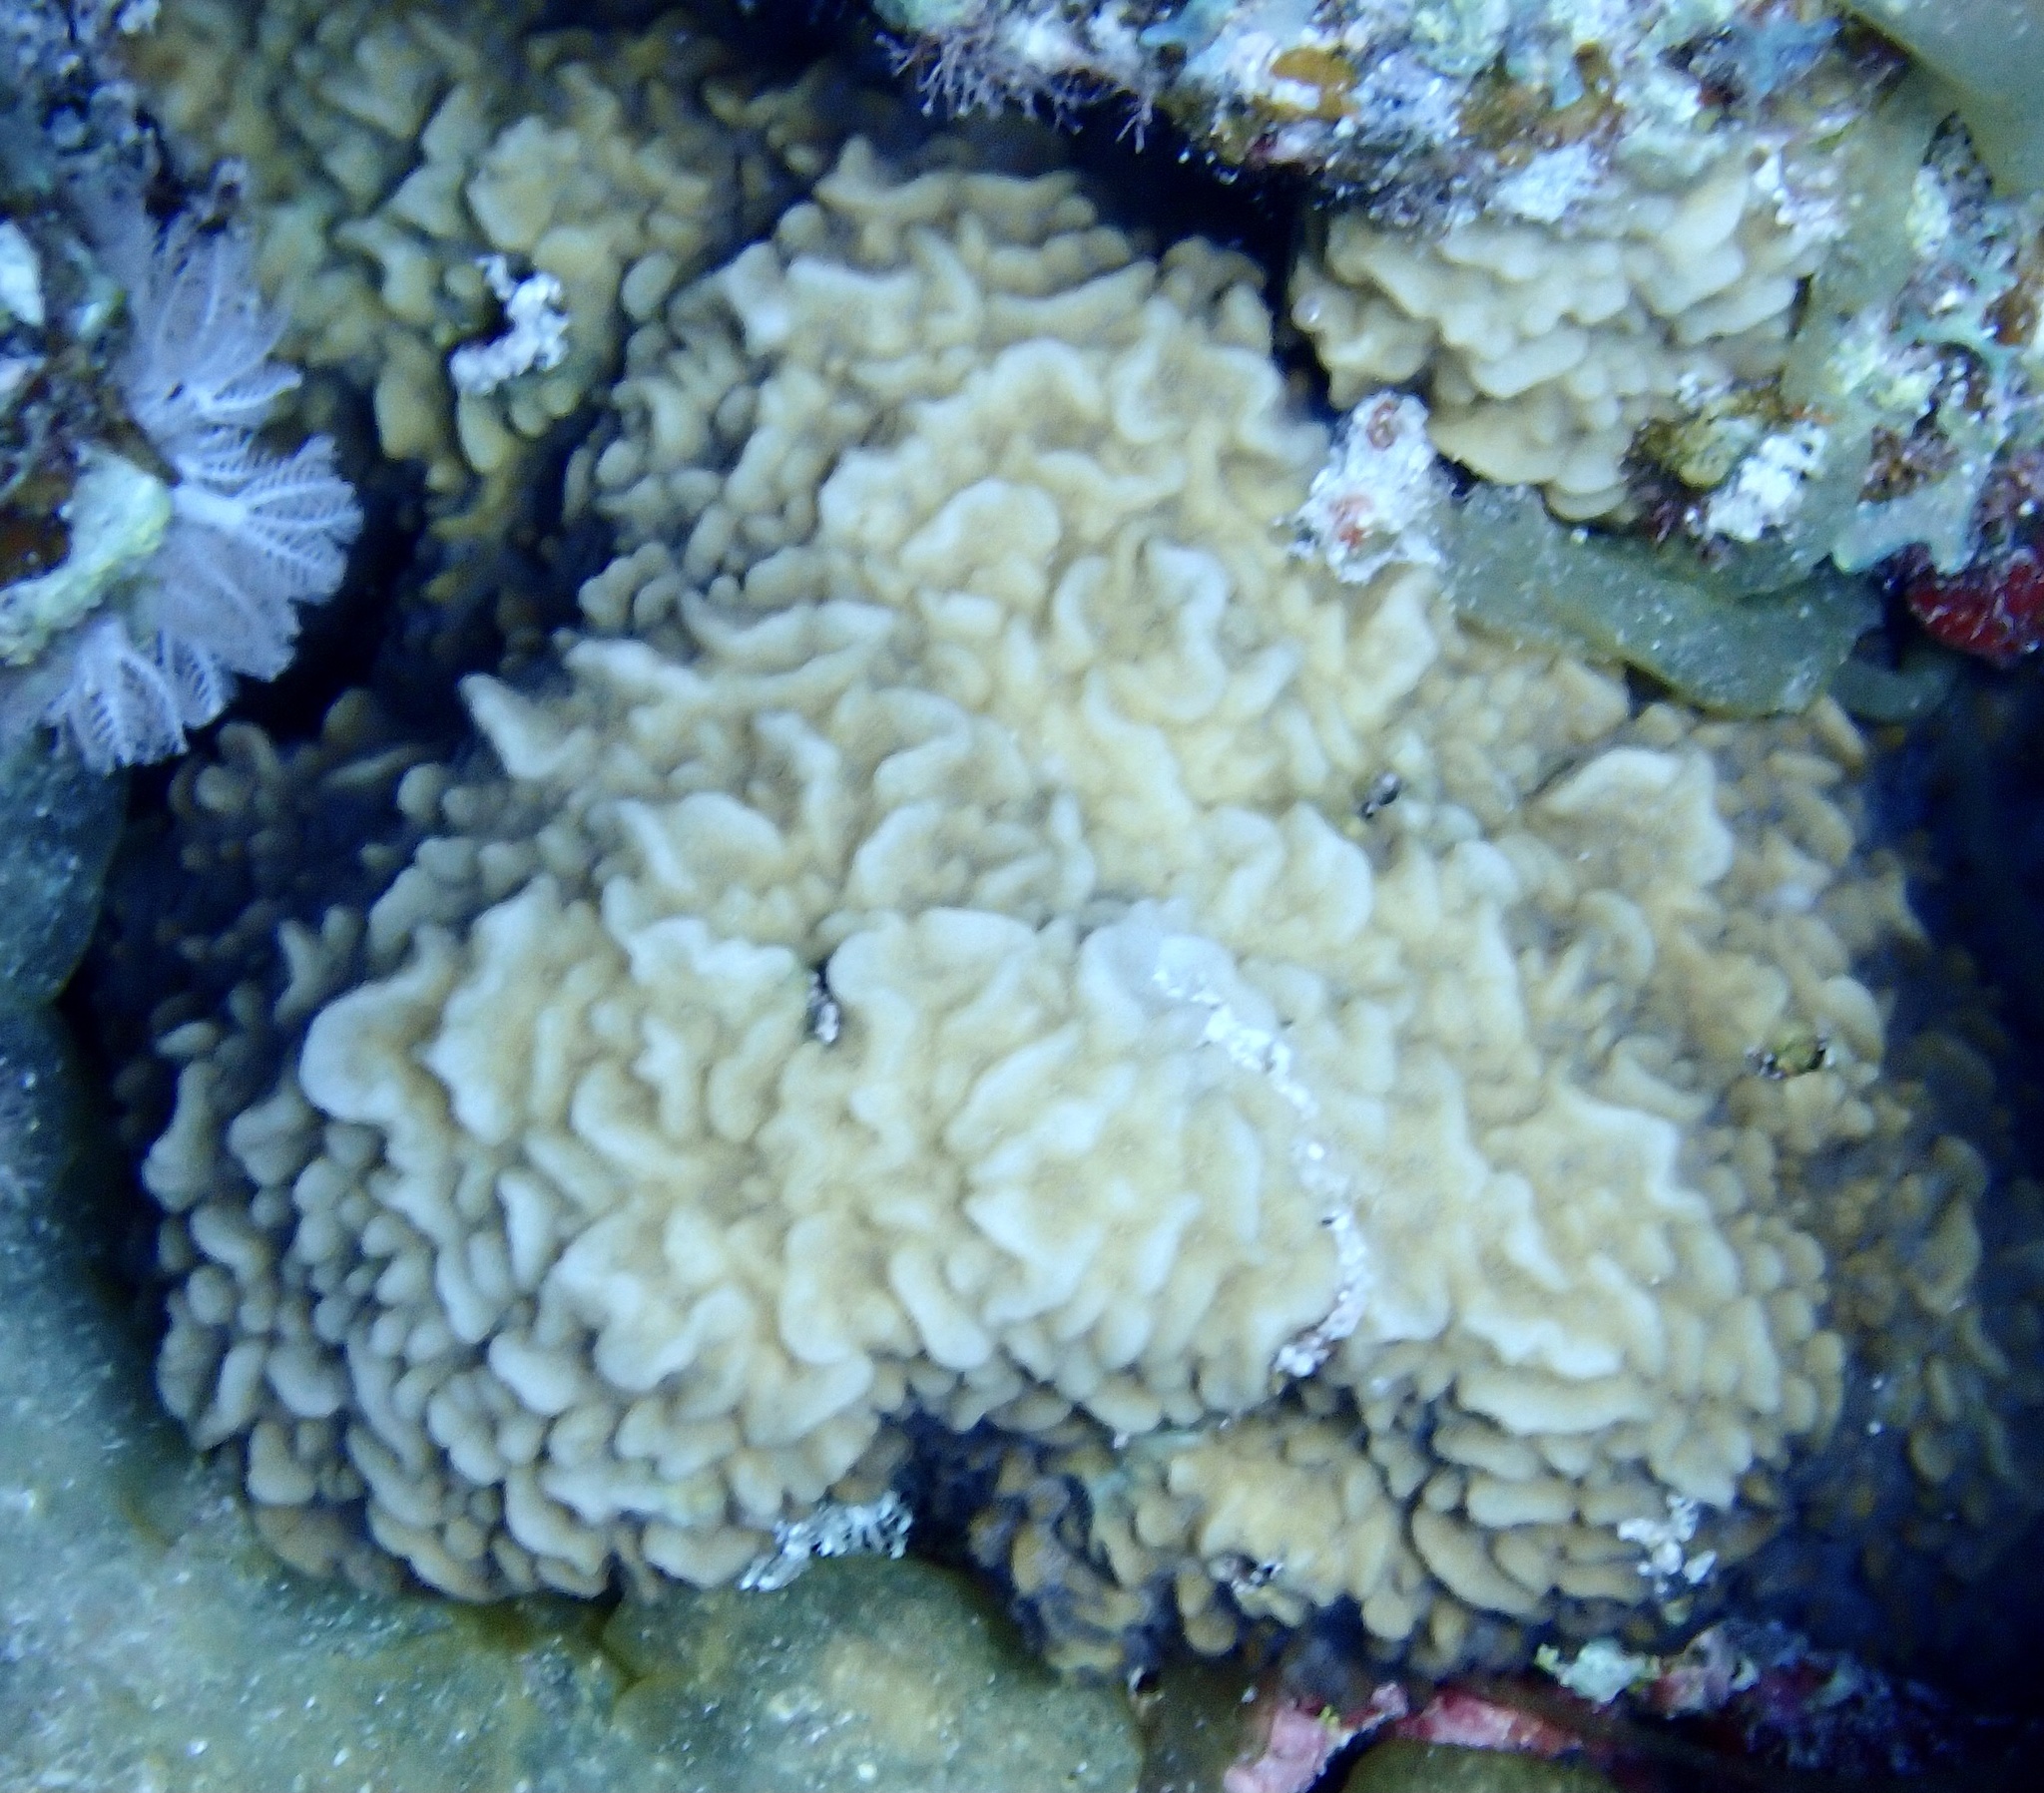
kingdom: Animalia
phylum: Cnidaria
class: Anthozoa
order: Scleractinia
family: Agariciidae
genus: Pavona
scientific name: Pavona varians
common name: Leaf coral
